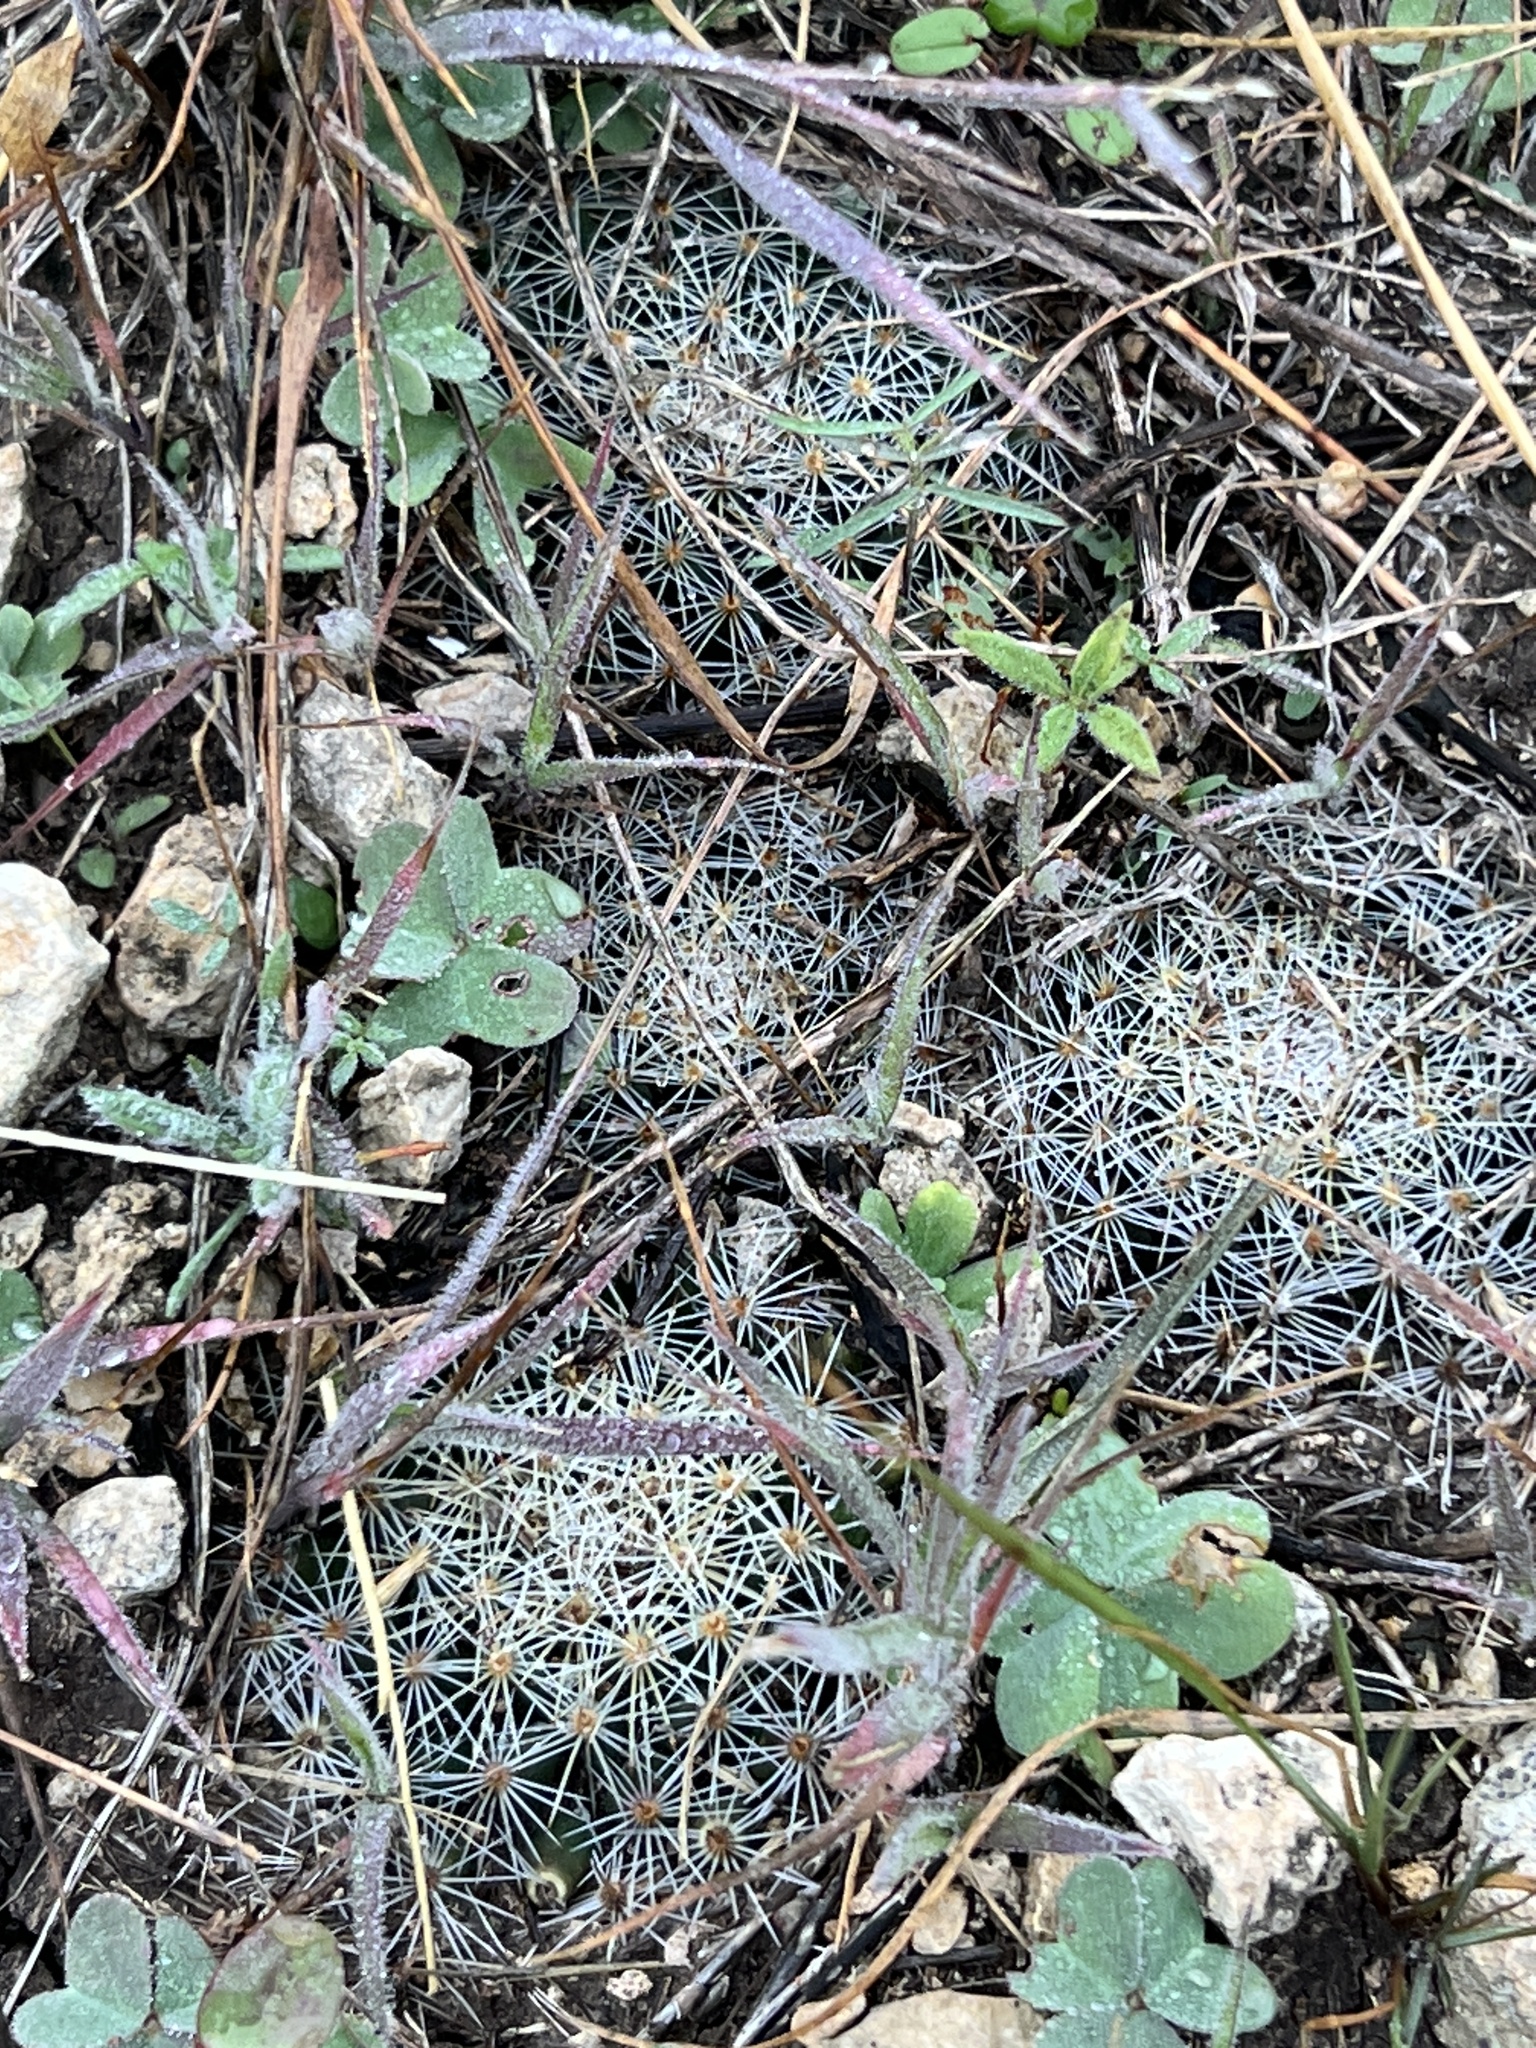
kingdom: Plantae
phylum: Tracheophyta
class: Magnoliopsida
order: Caryophyllales
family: Cactaceae
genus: Mammillaria
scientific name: Mammillaria heyderi
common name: Little nipple cactus
